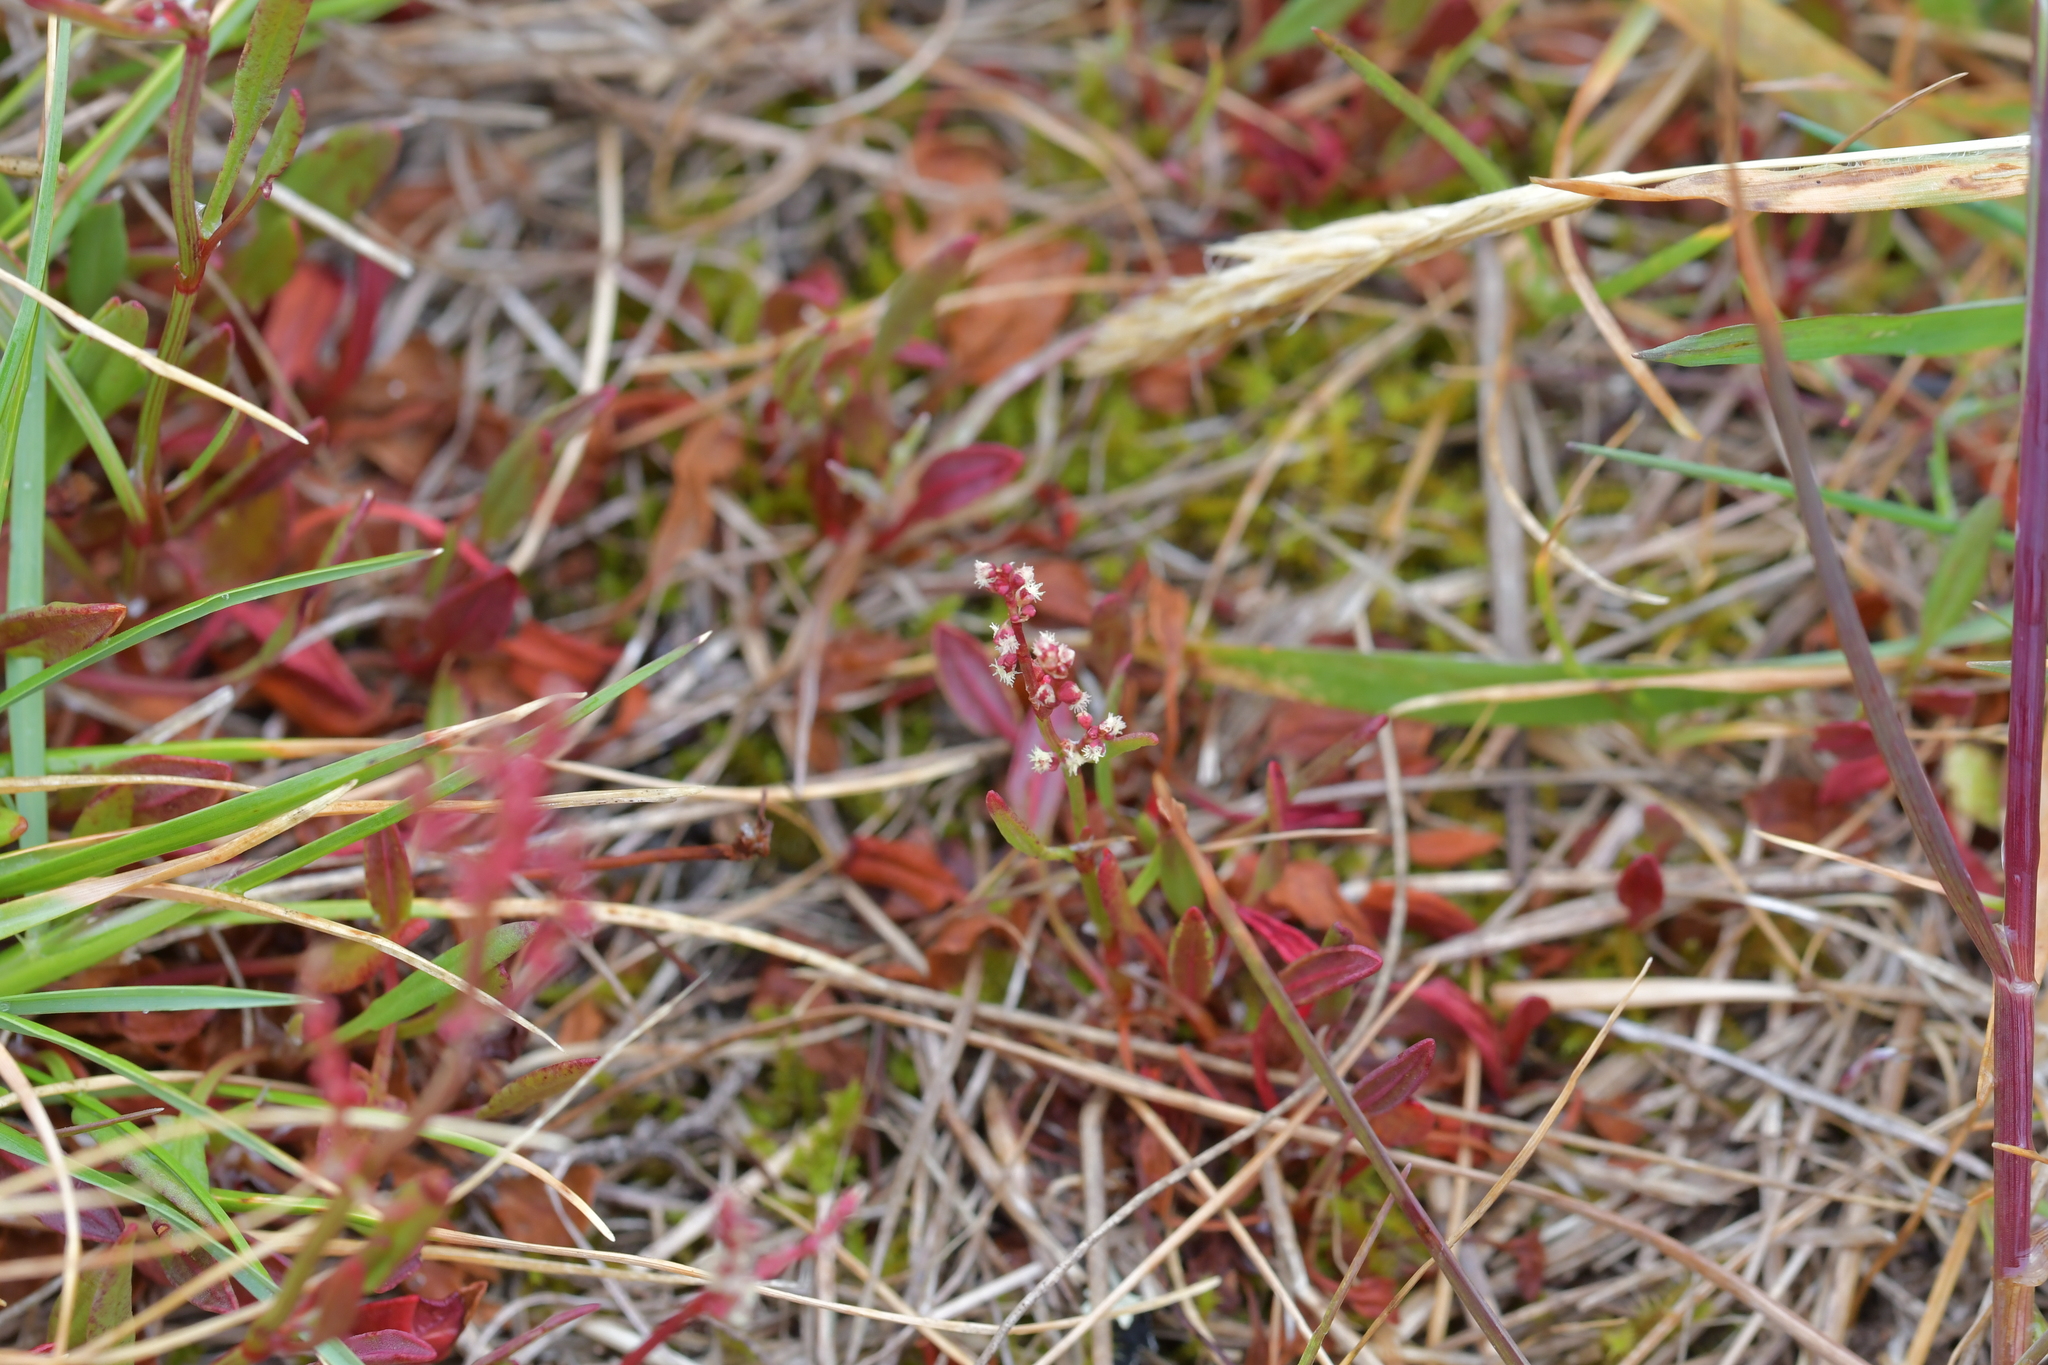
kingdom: Plantae
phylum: Tracheophyta
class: Magnoliopsida
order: Caryophyllales
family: Polygonaceae
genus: Rumex
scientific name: Rumex acetosella
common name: Common sheep sorrel
